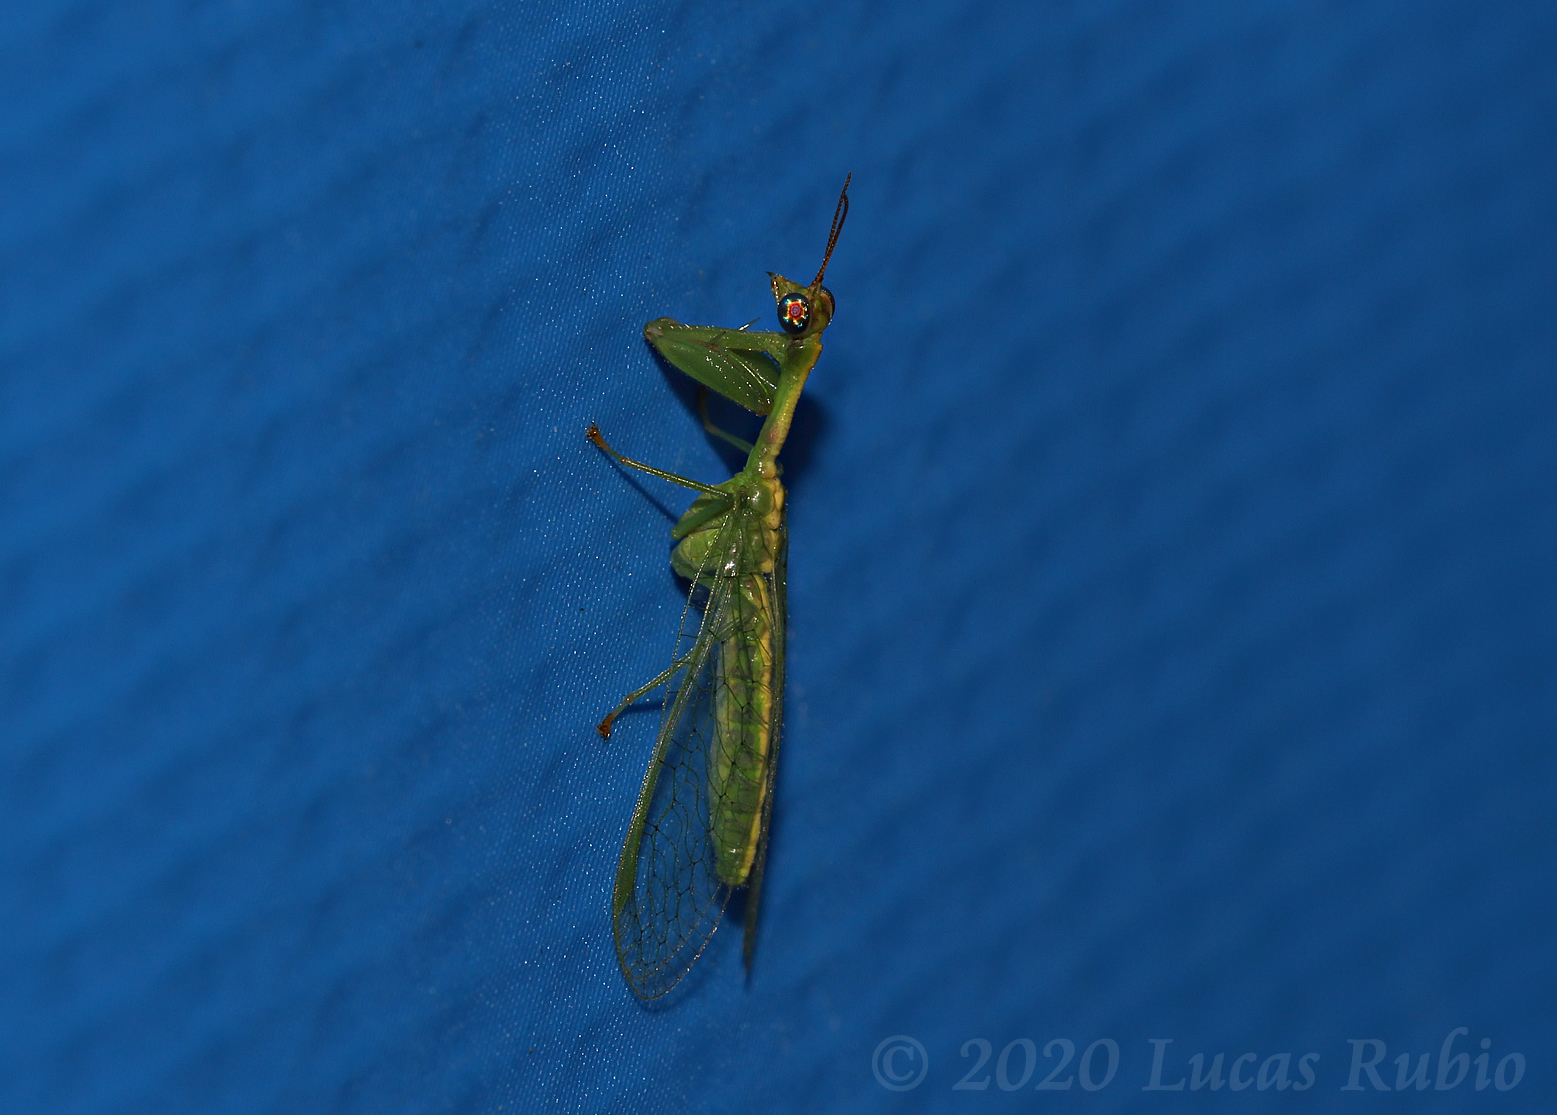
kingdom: Animalia
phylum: Arthropoda
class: Insecta
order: Neuroptera
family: Mantispidae
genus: Zeugomantispa
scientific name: Zeugomantispa minuta
